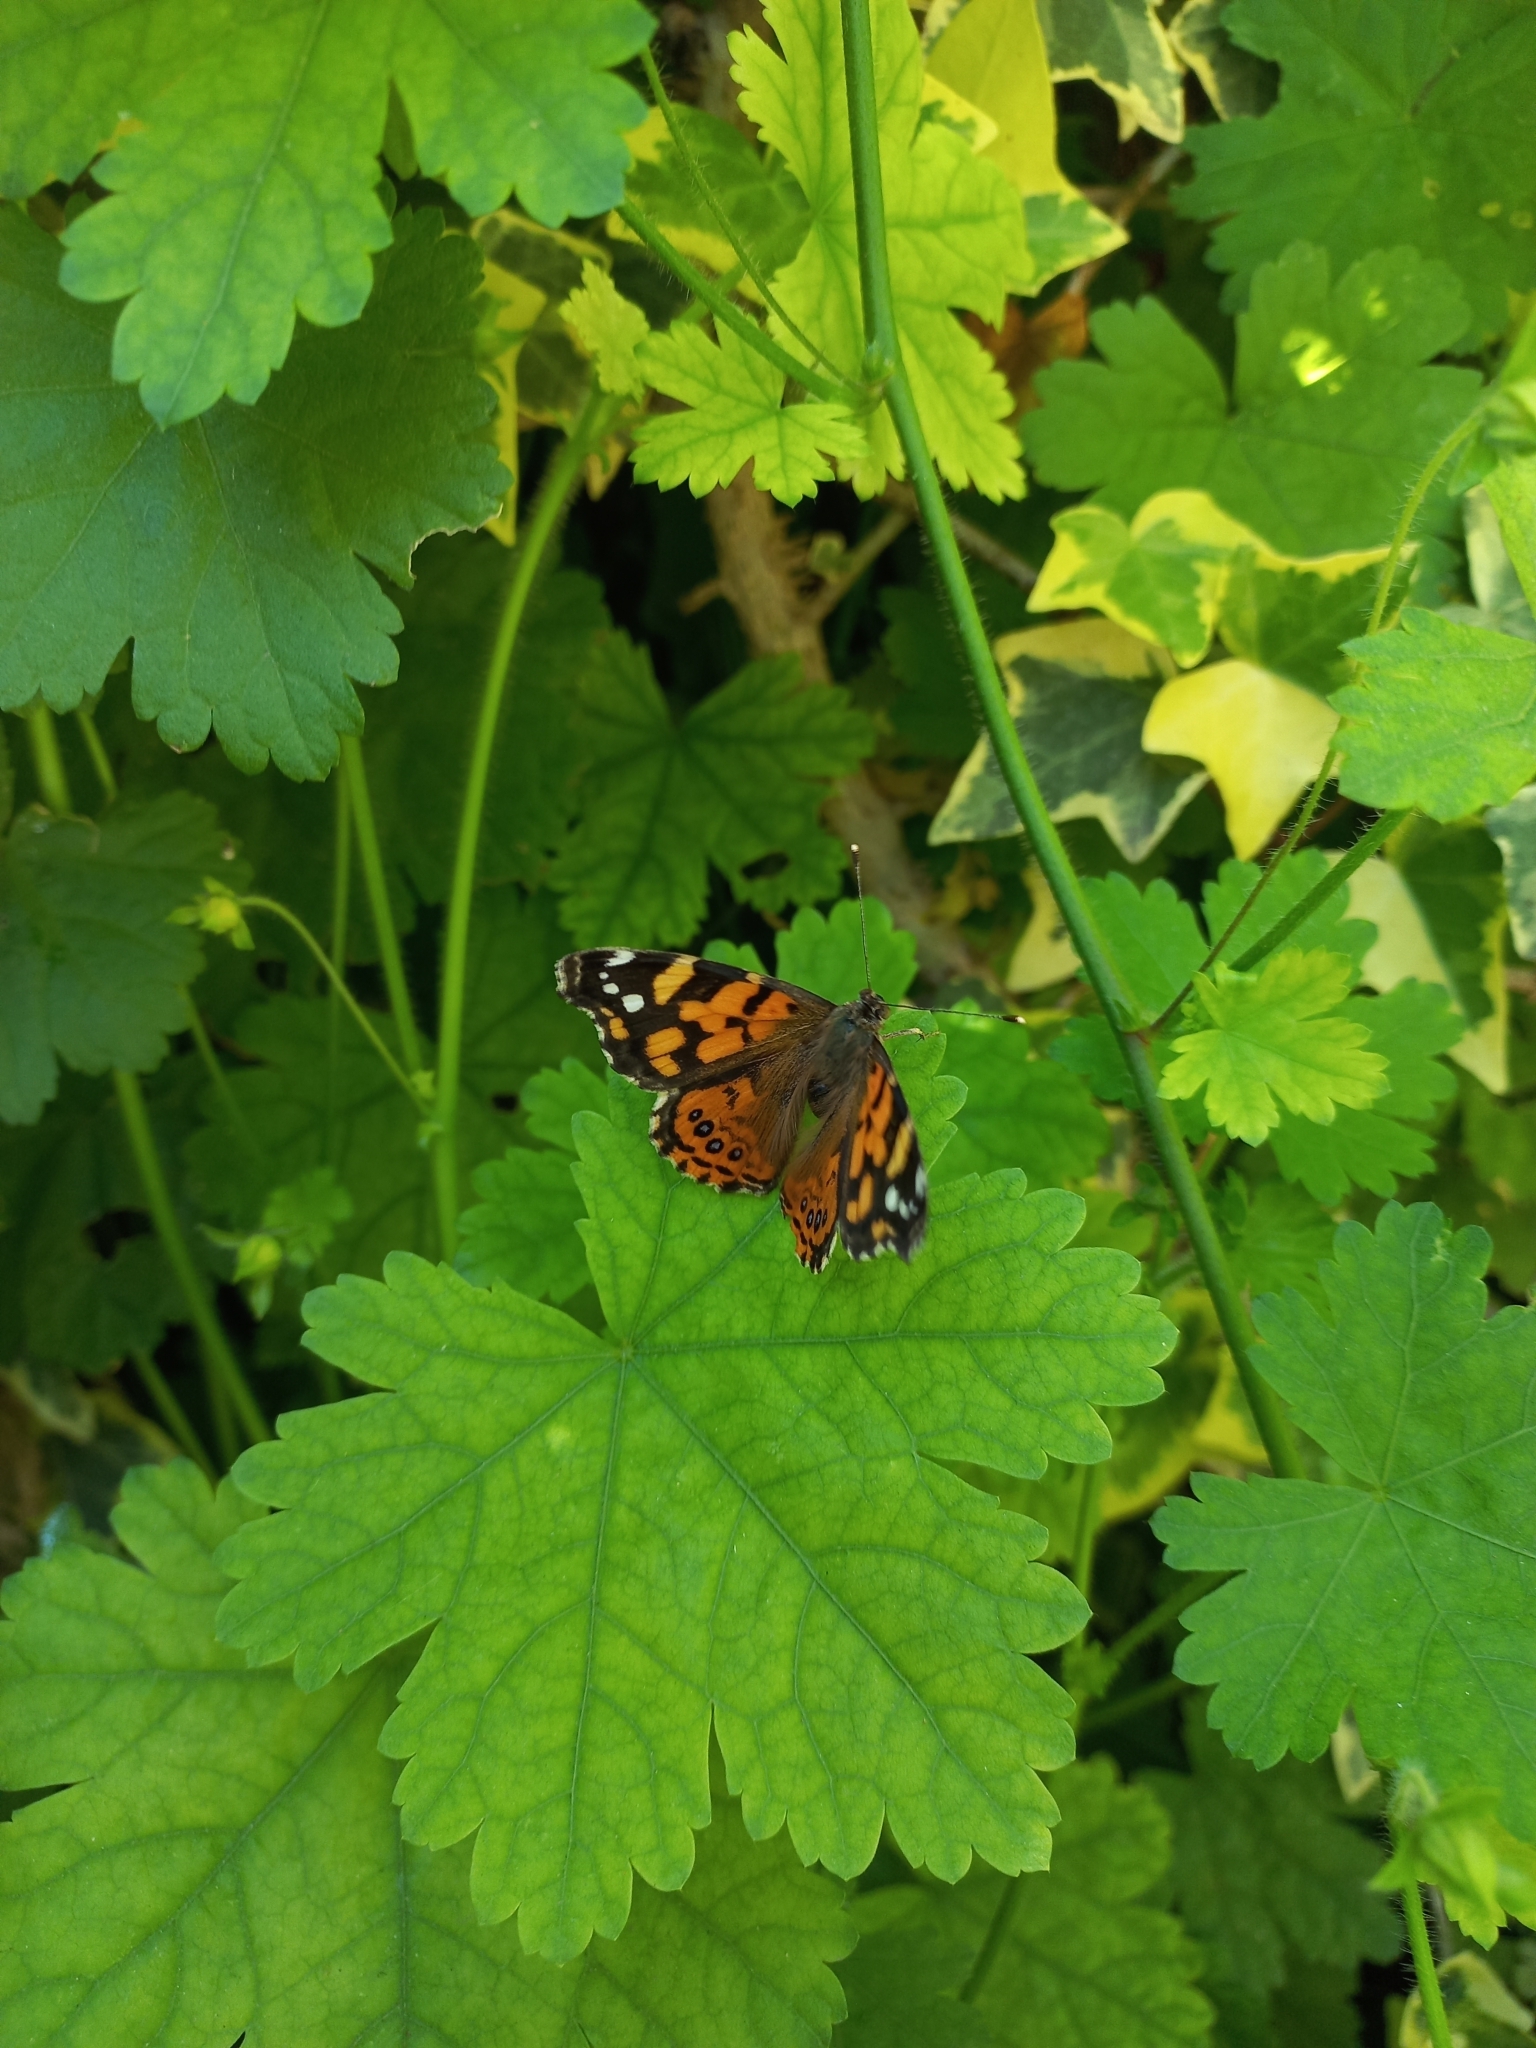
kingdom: Animalia
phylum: Arthropoda
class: Insecta
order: Lepidoptera
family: Nymphalidae
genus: Vanessa
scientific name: Vanessa carye
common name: Subtropical lady
